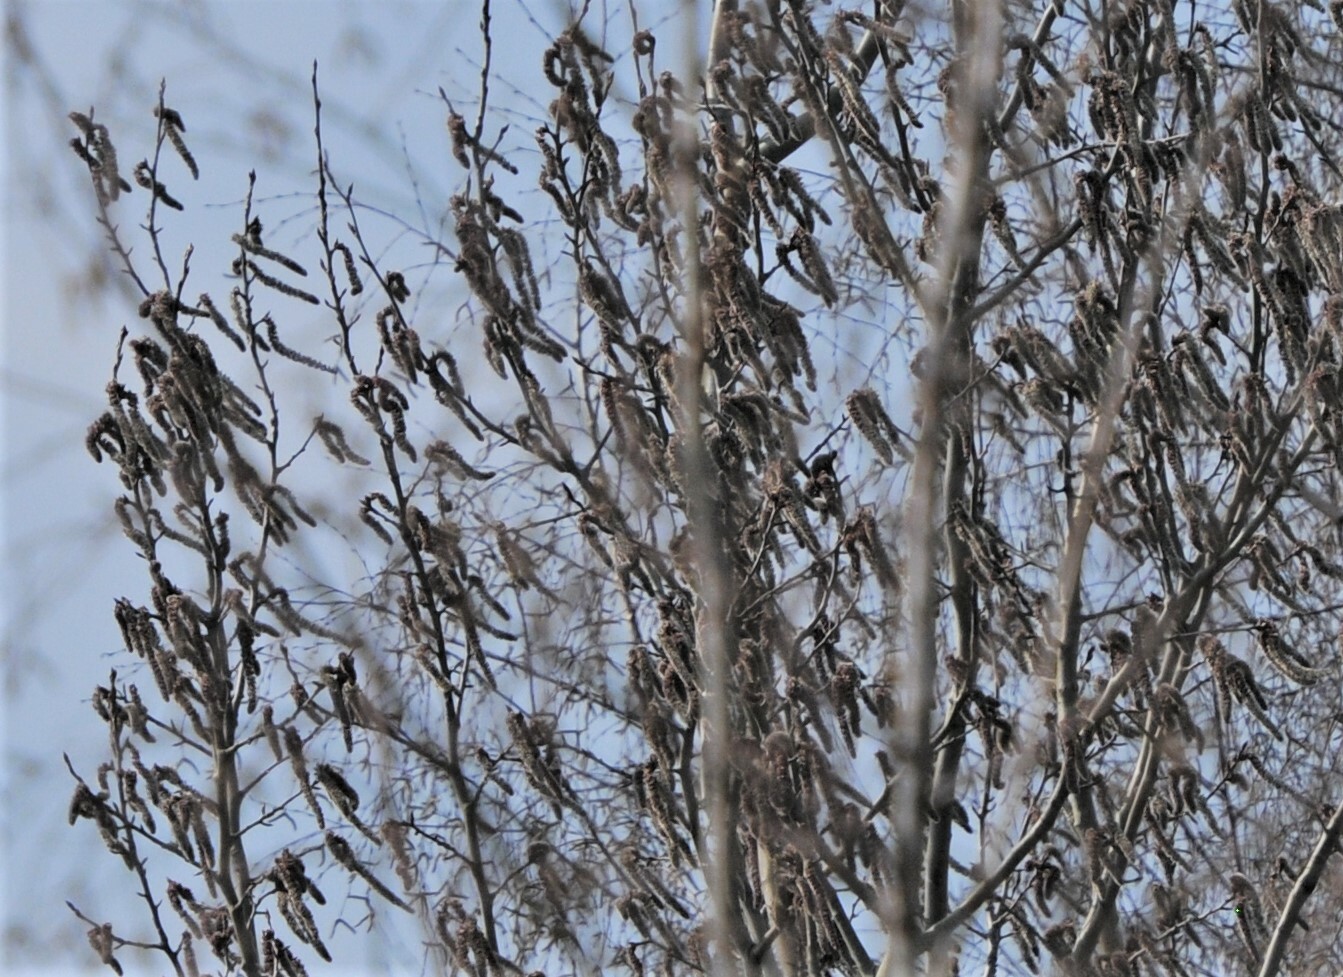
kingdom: Plantae
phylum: Tracheophyta
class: Magnoliopsida
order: Malpighiales
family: Salicaceae
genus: Populus
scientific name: Populus tremula
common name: European aspen
